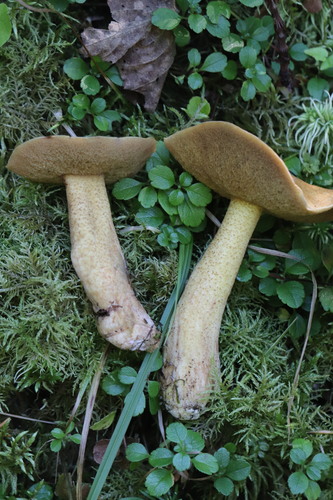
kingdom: Fungi
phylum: Basidiomycota
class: Agaricomycetes
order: Boletales
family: Suillaceae
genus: Suillus
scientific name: Suillus plorans
